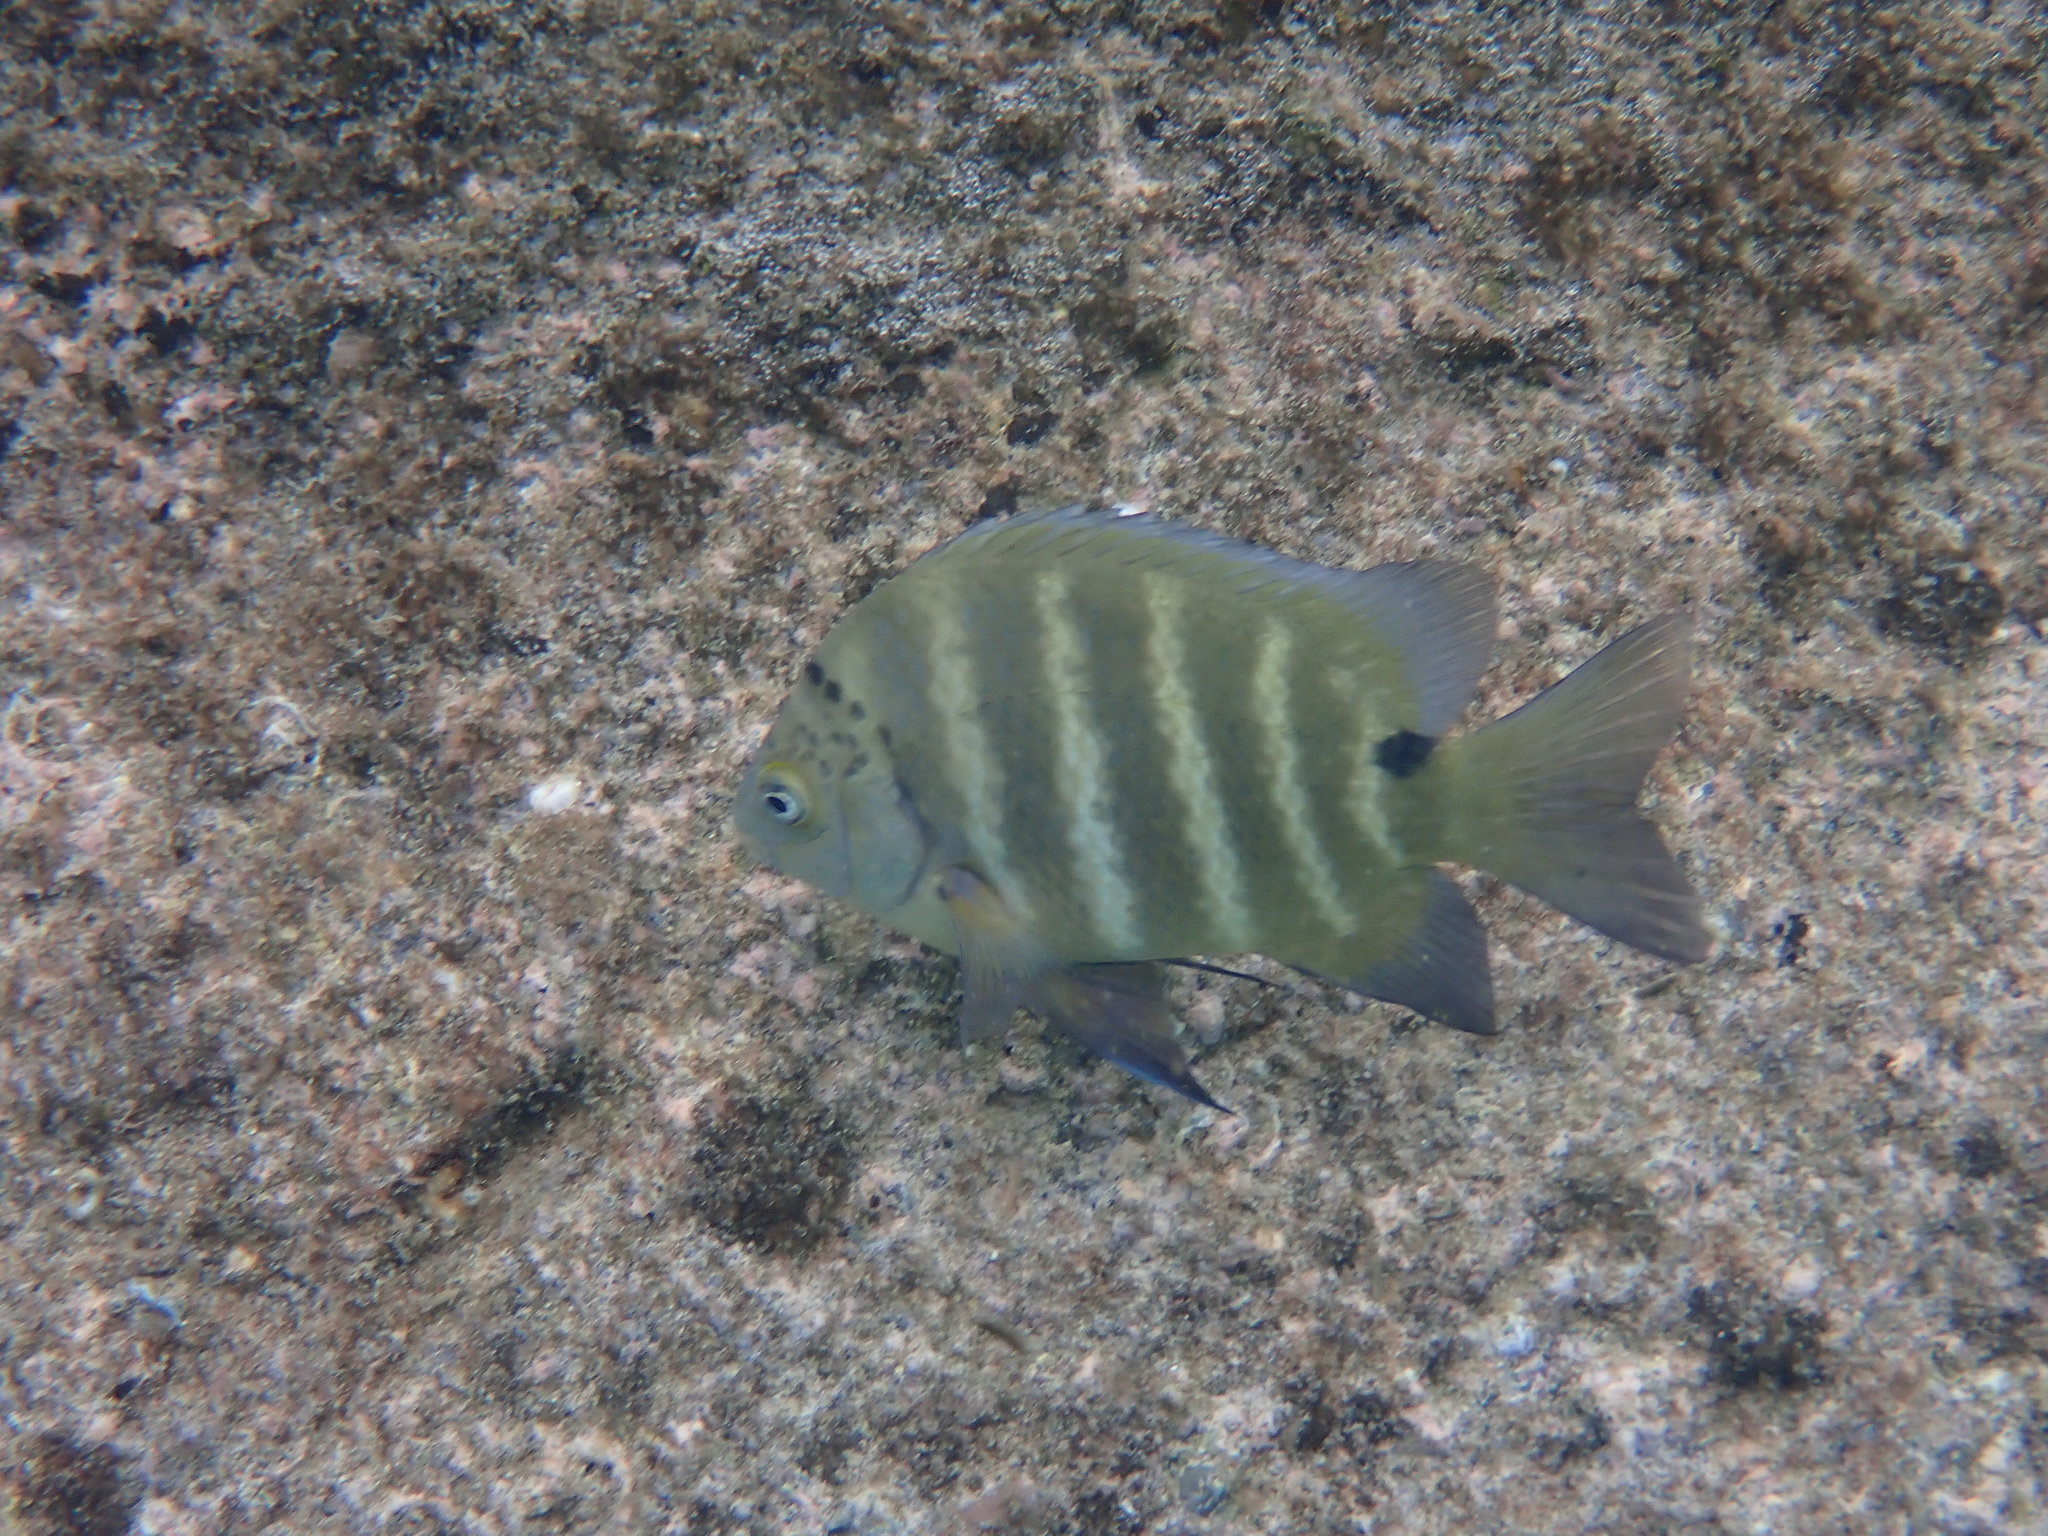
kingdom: Animalia
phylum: Chordata
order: Perciformes
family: Pomacentridae
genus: Abudefduf
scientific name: Abudefduf sordidus
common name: Blackspot sergeant
